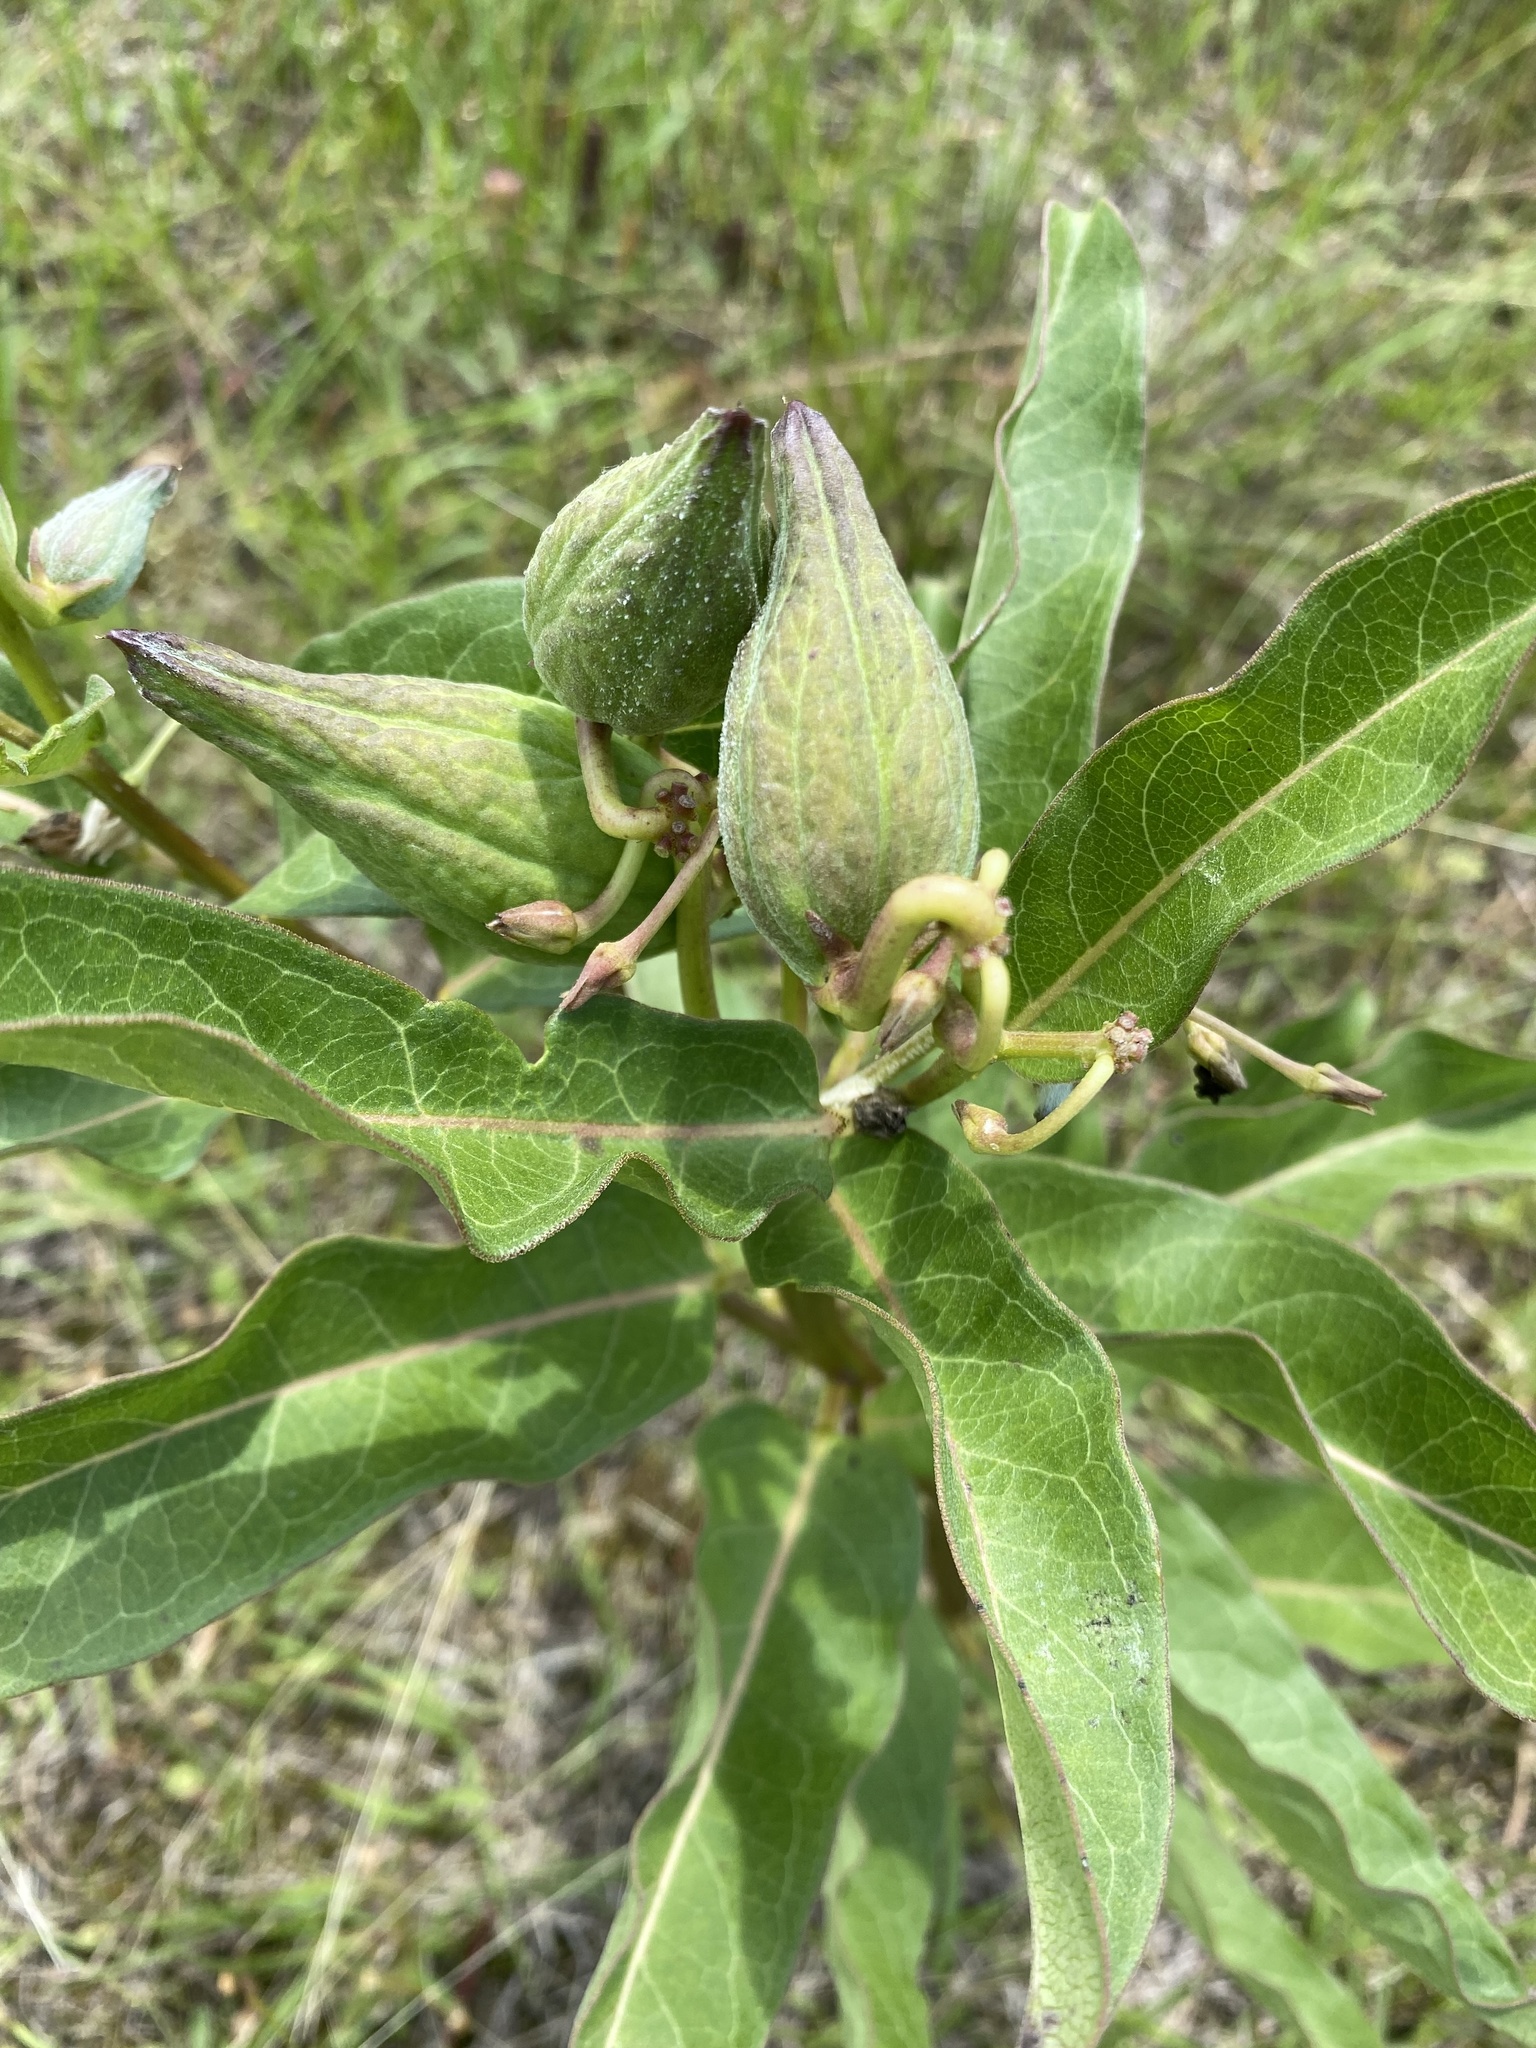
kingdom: Plantae
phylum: Tracheophyta
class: Magnoliopsida
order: Gentianales
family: Apocynaceae
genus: Asclepias
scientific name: Asclepias viridis
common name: Antelope-horns
